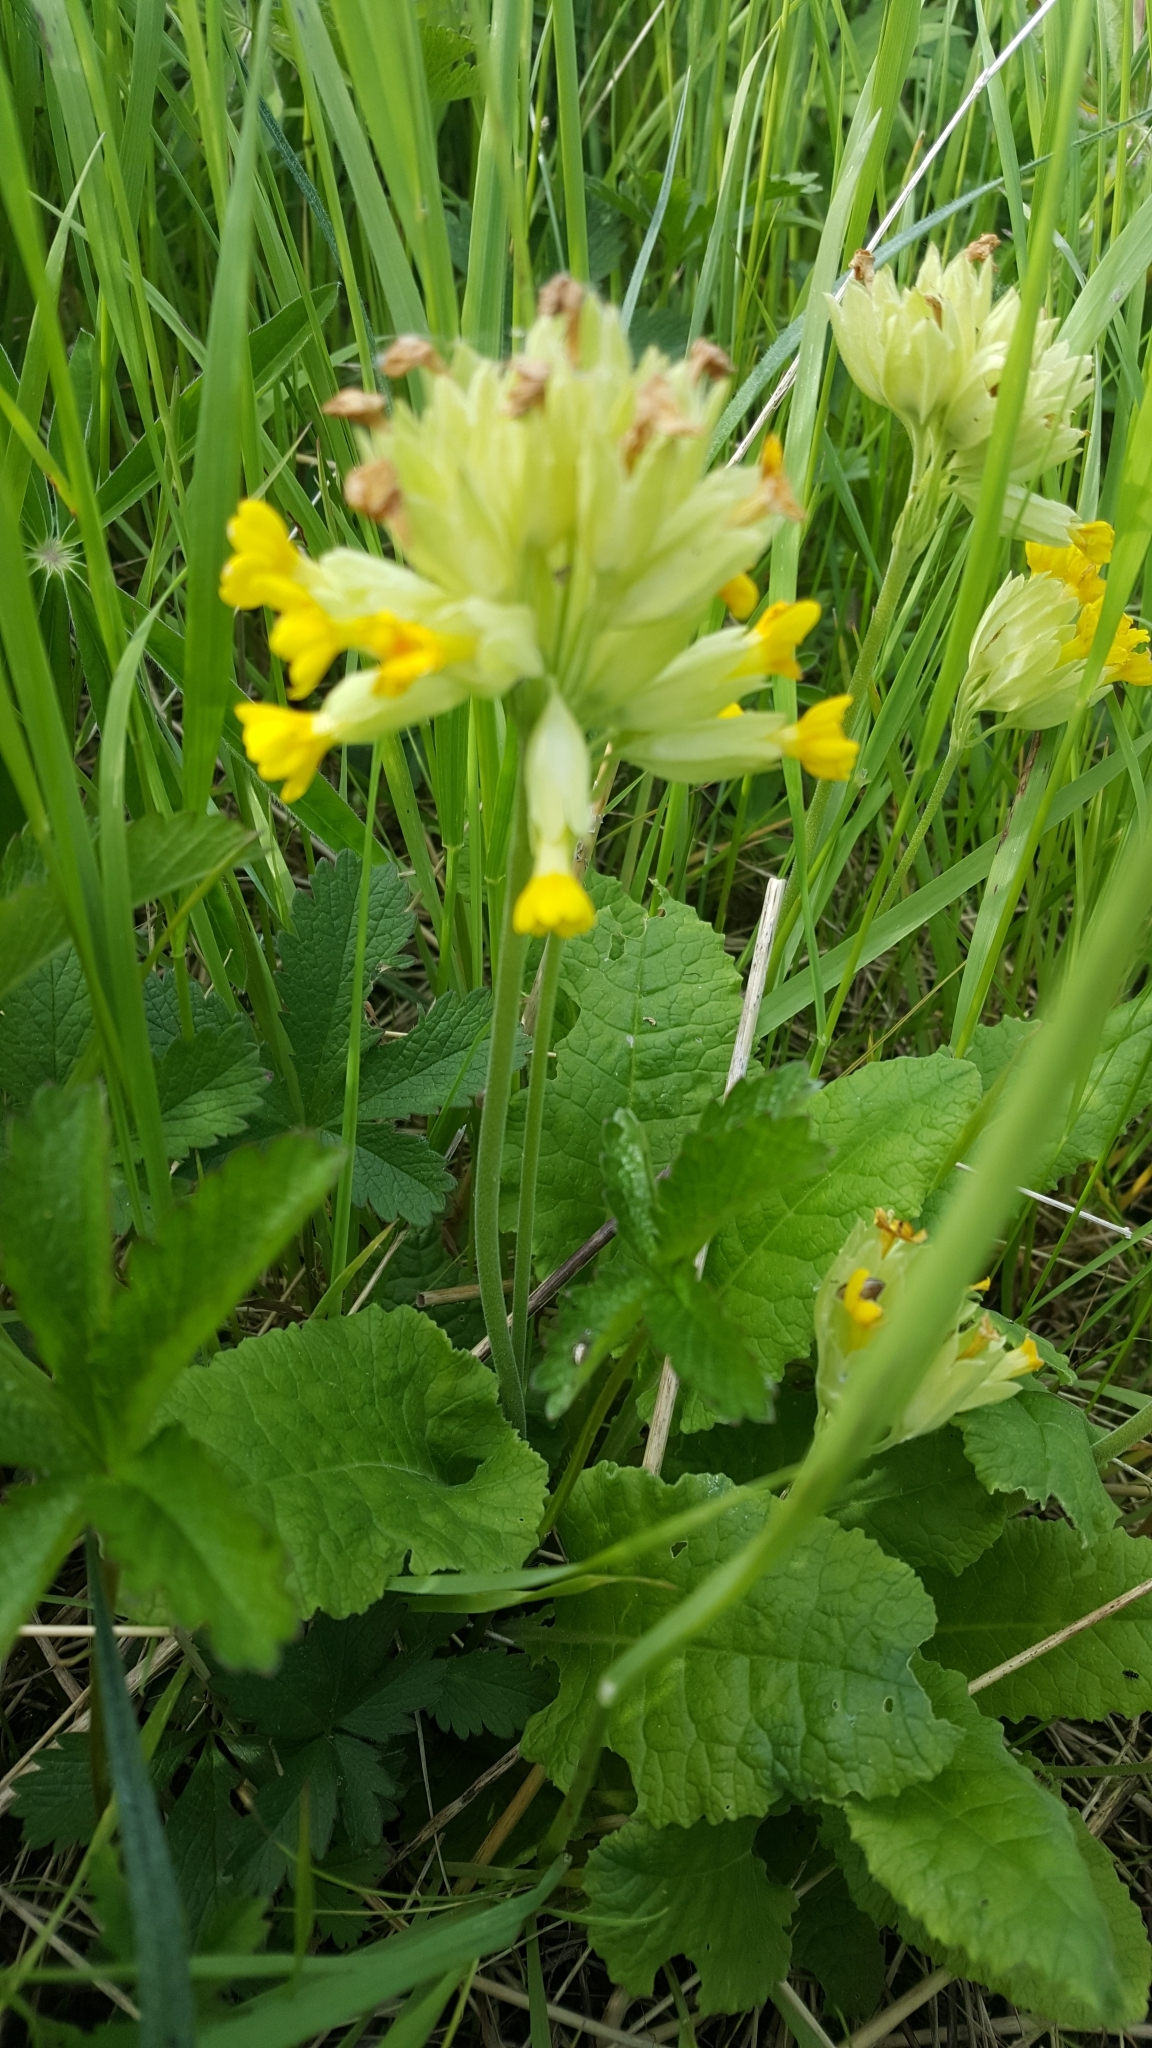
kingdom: Plantae
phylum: Tracheophyta
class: Magnoliopsida
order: Ericales
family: Primulaceae
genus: Primula
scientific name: Primula veris
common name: Cowslip
